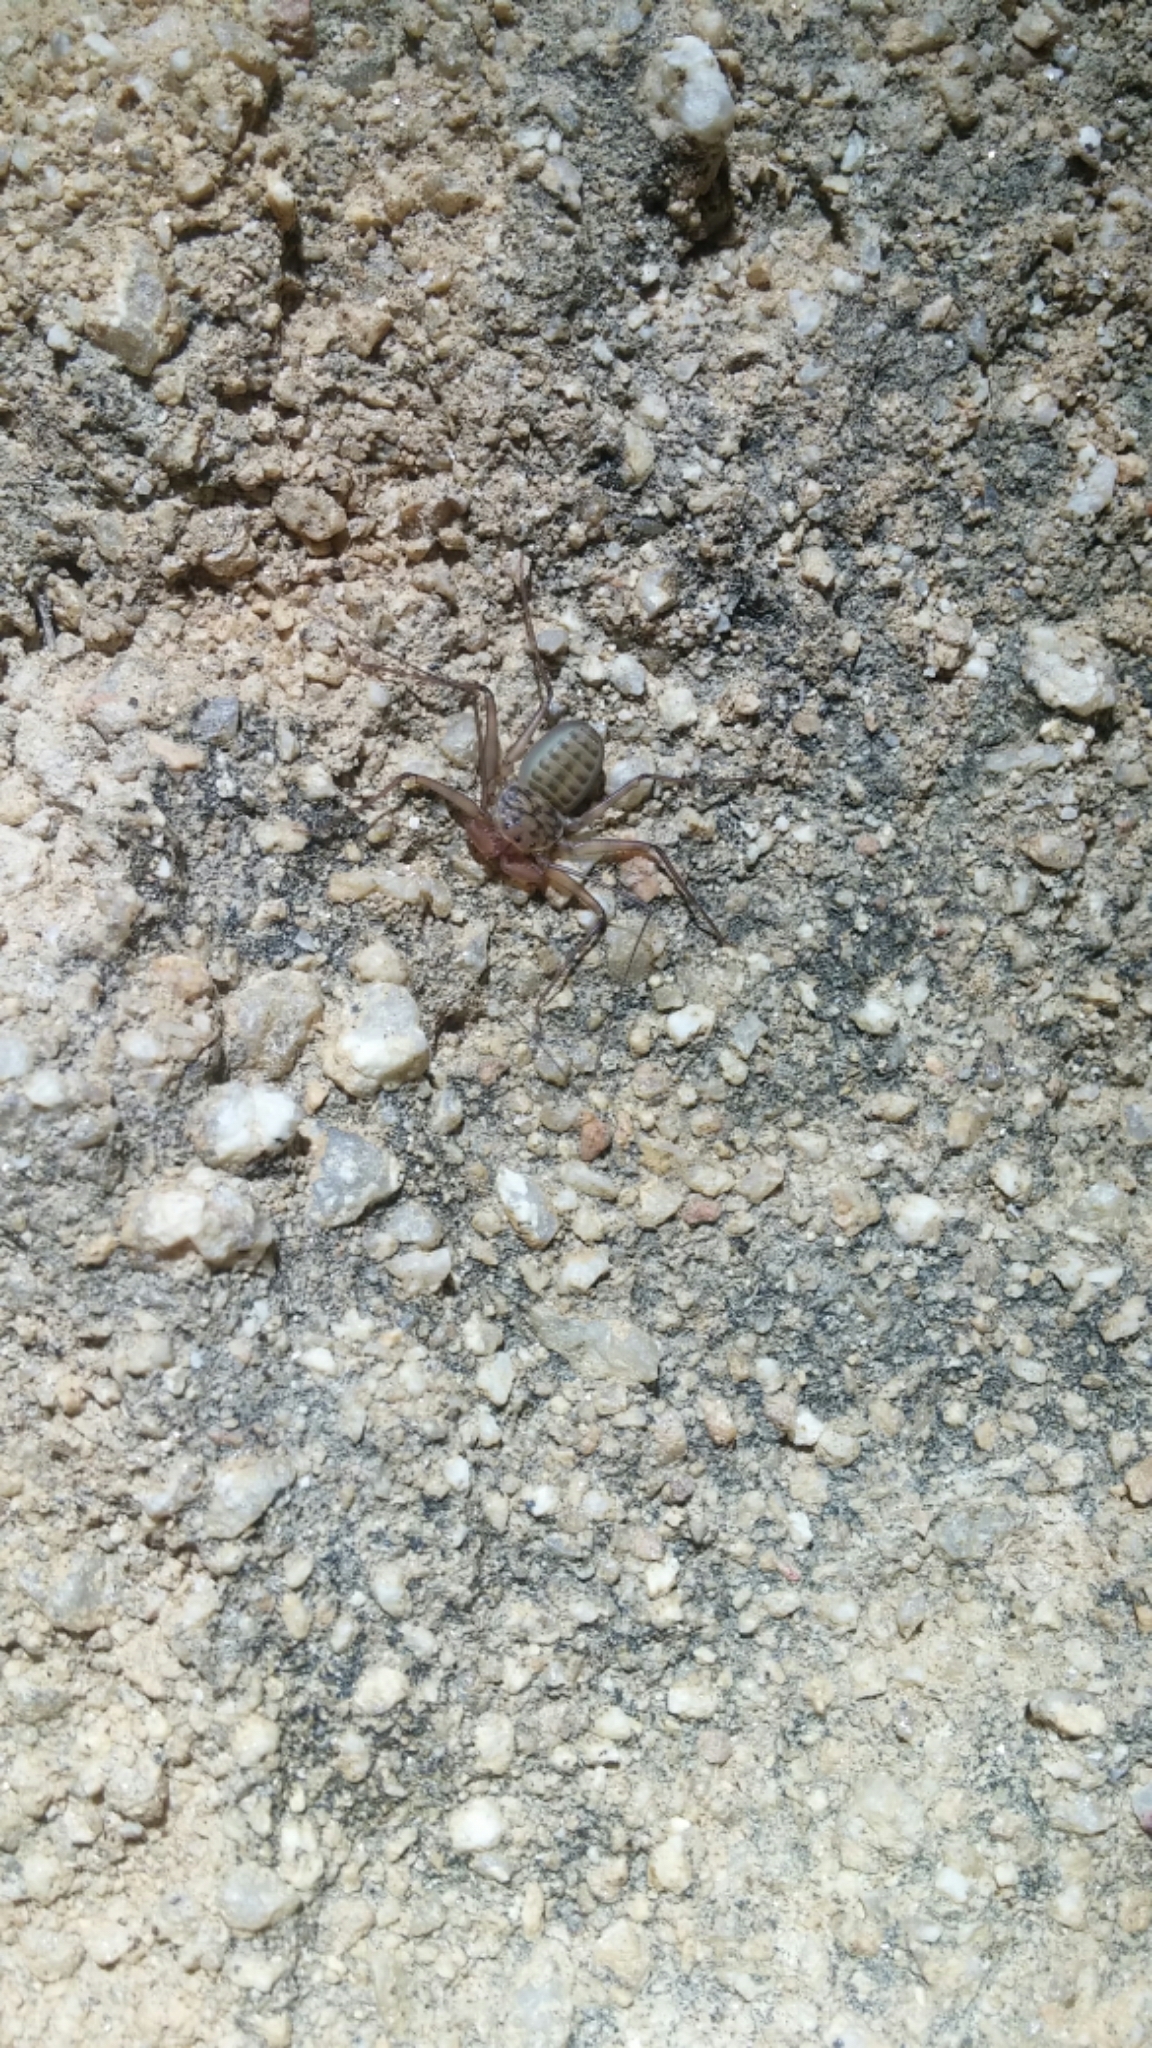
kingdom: Animalia
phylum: Arthropoda
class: Arachnida
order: Amblypygi
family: Phrynidae
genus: Phrynus
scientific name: Phrynus asperatipes
